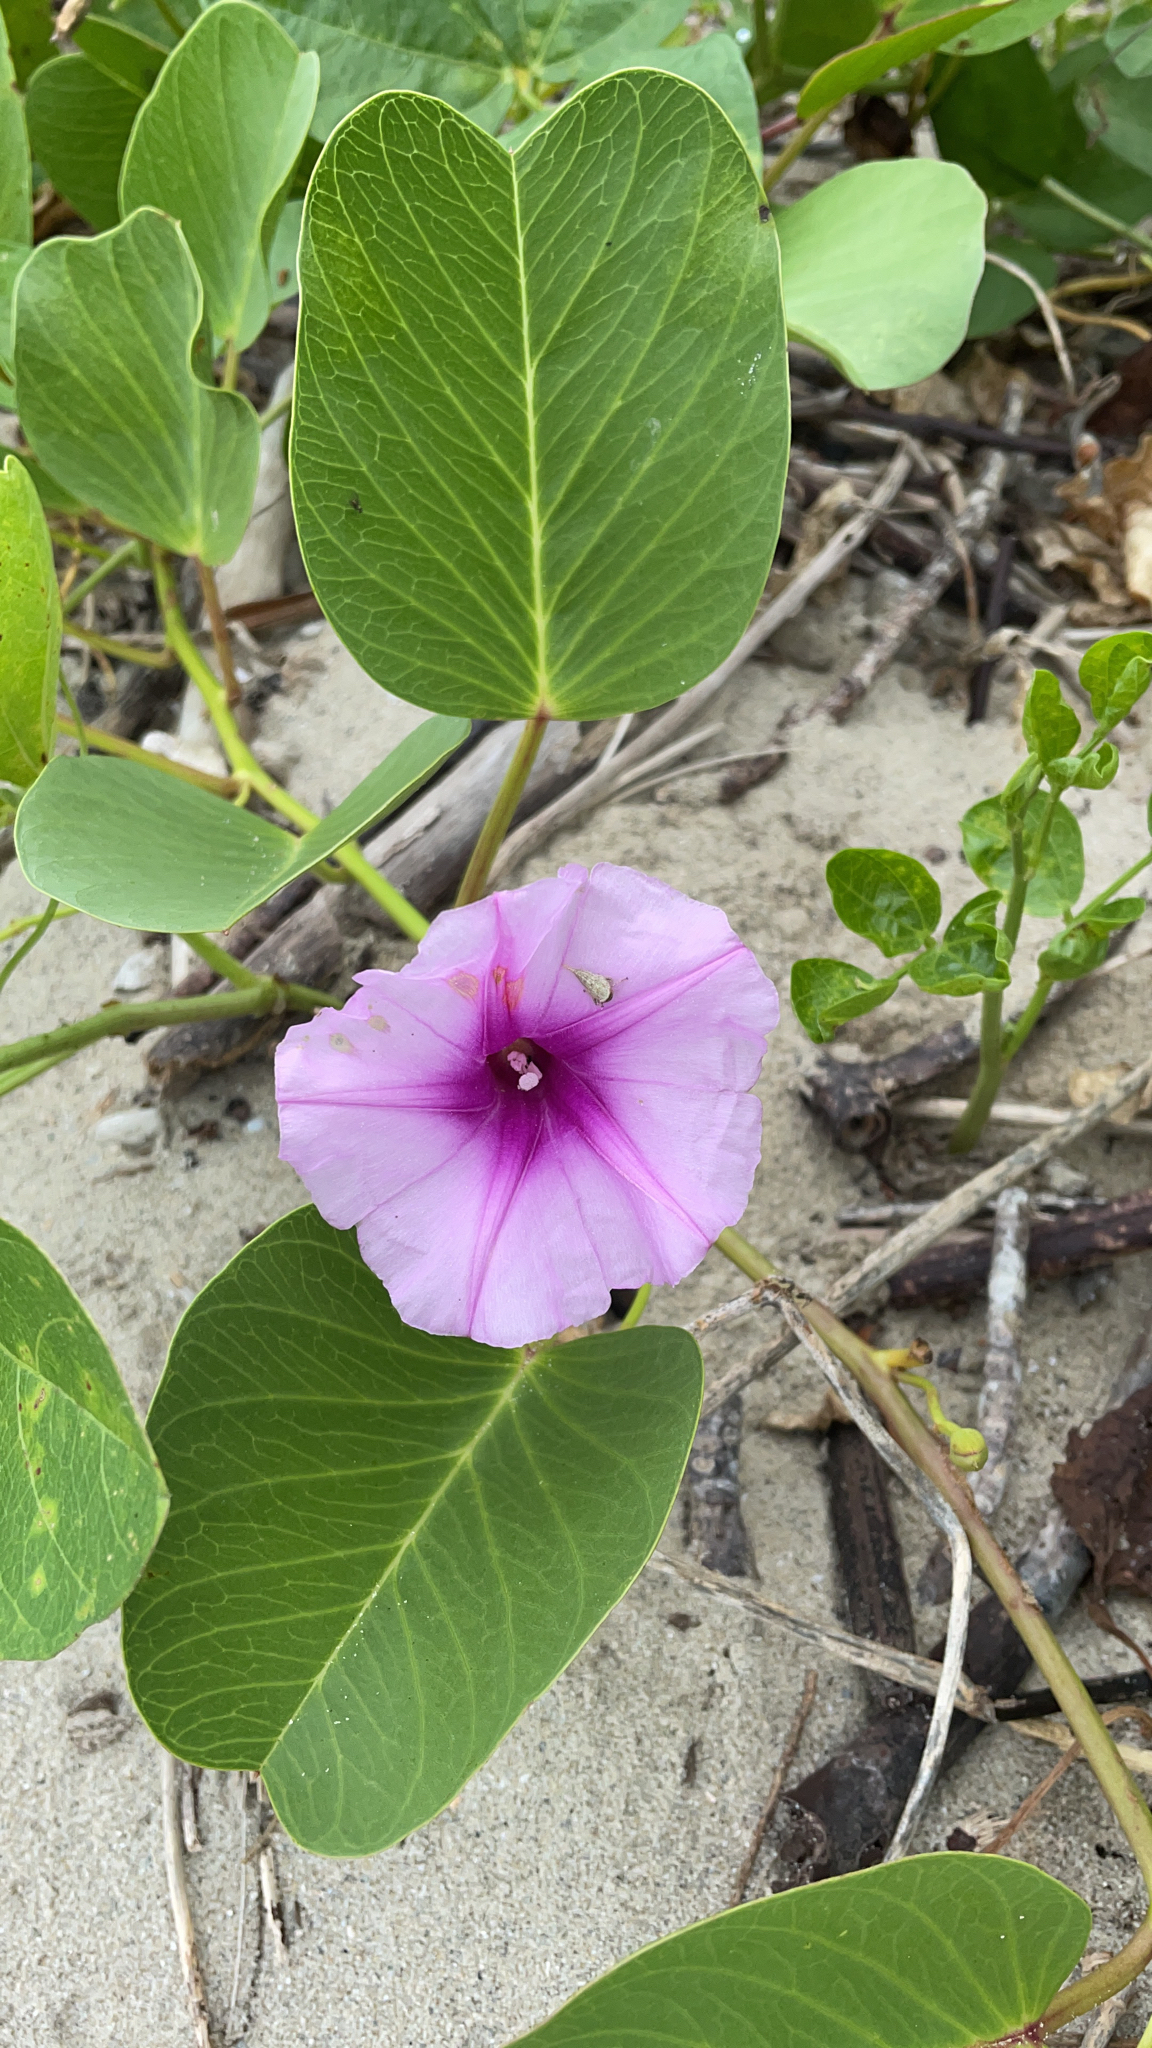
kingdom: Plantae
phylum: Tracheophyta
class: Magnoliopsida
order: Solanales
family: Convolvulaceae
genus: Ipomoea
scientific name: Ipomoea pes-caprae
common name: Beach morning glory
